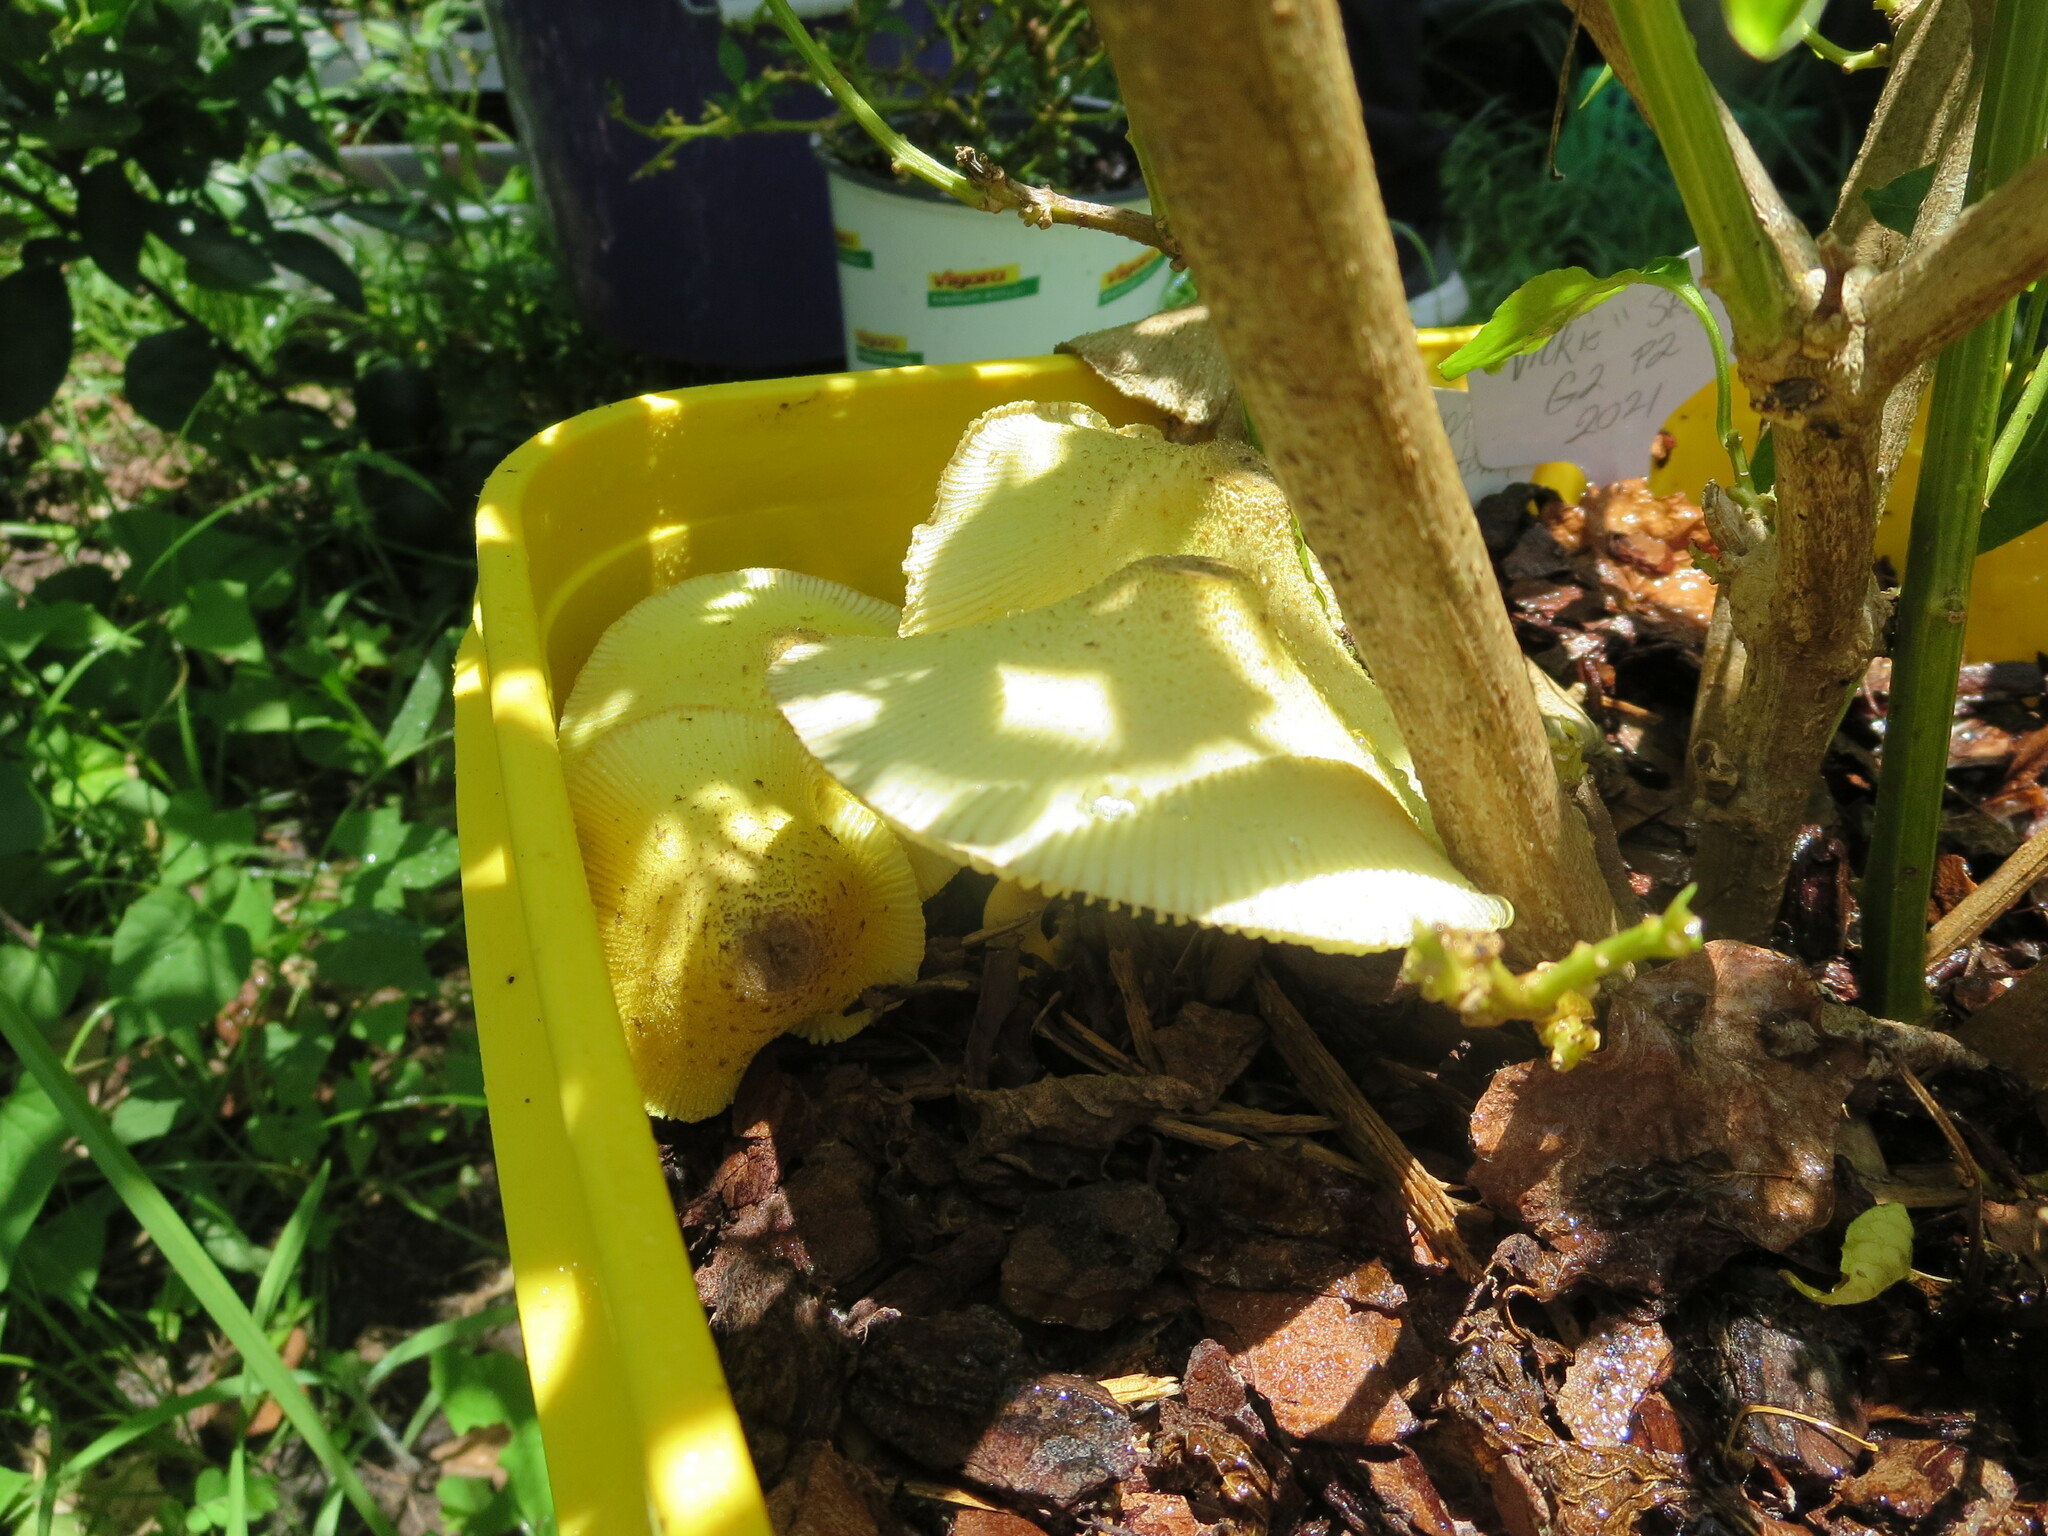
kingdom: Fungi
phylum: Basidiomycota
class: Agaricomycetes
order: Agaricales
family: Agaricaceae
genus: Leucocoprinus
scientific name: Leucocoprinus birnbaumii
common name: Plantpot dapperling
